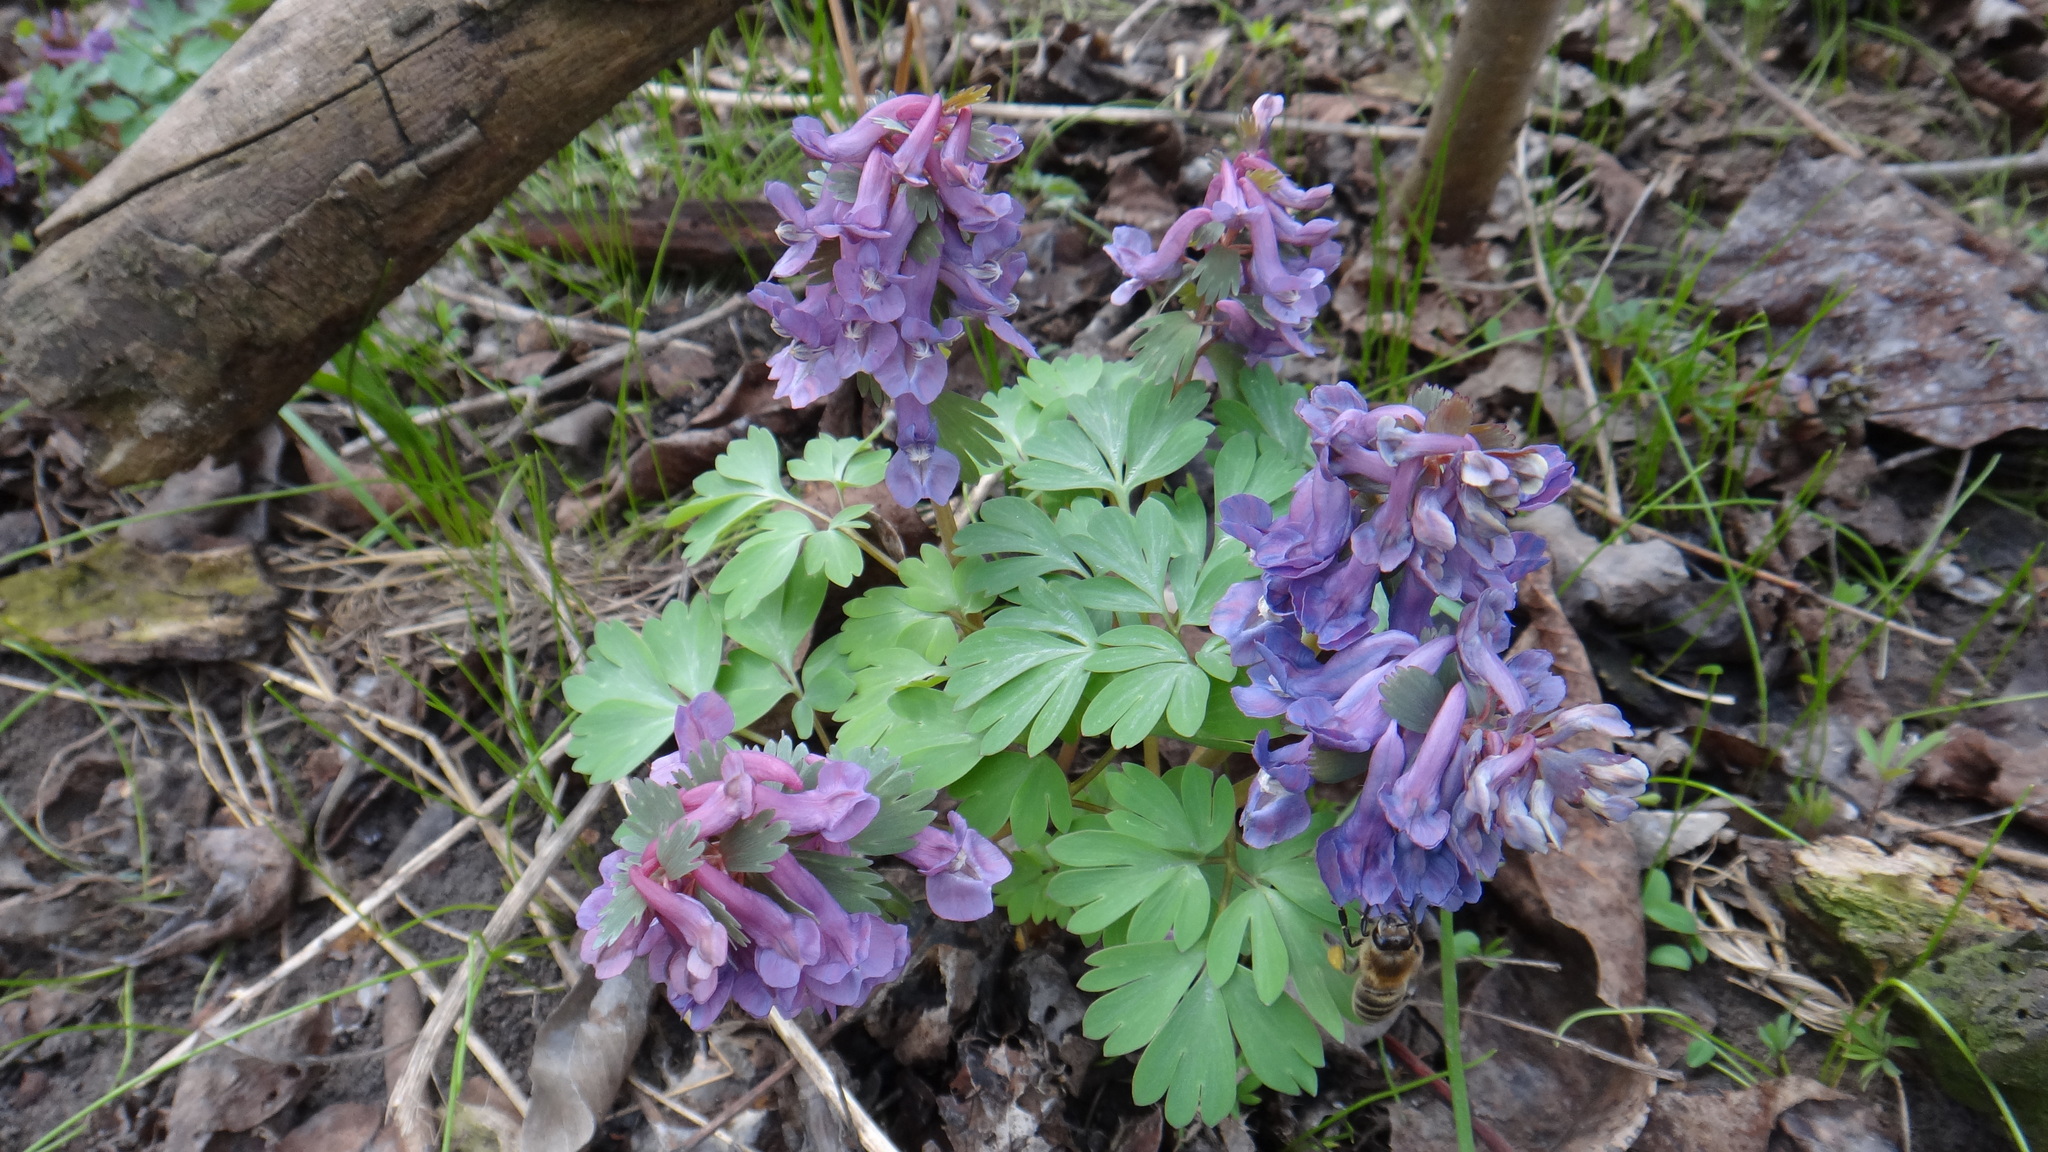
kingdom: Plantae
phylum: Tracheophyta
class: Magnoliopsida
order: Ranunculales
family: Papaveraceae
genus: Corydalis
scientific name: Corydalis solida
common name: Bird-in-a-bush
